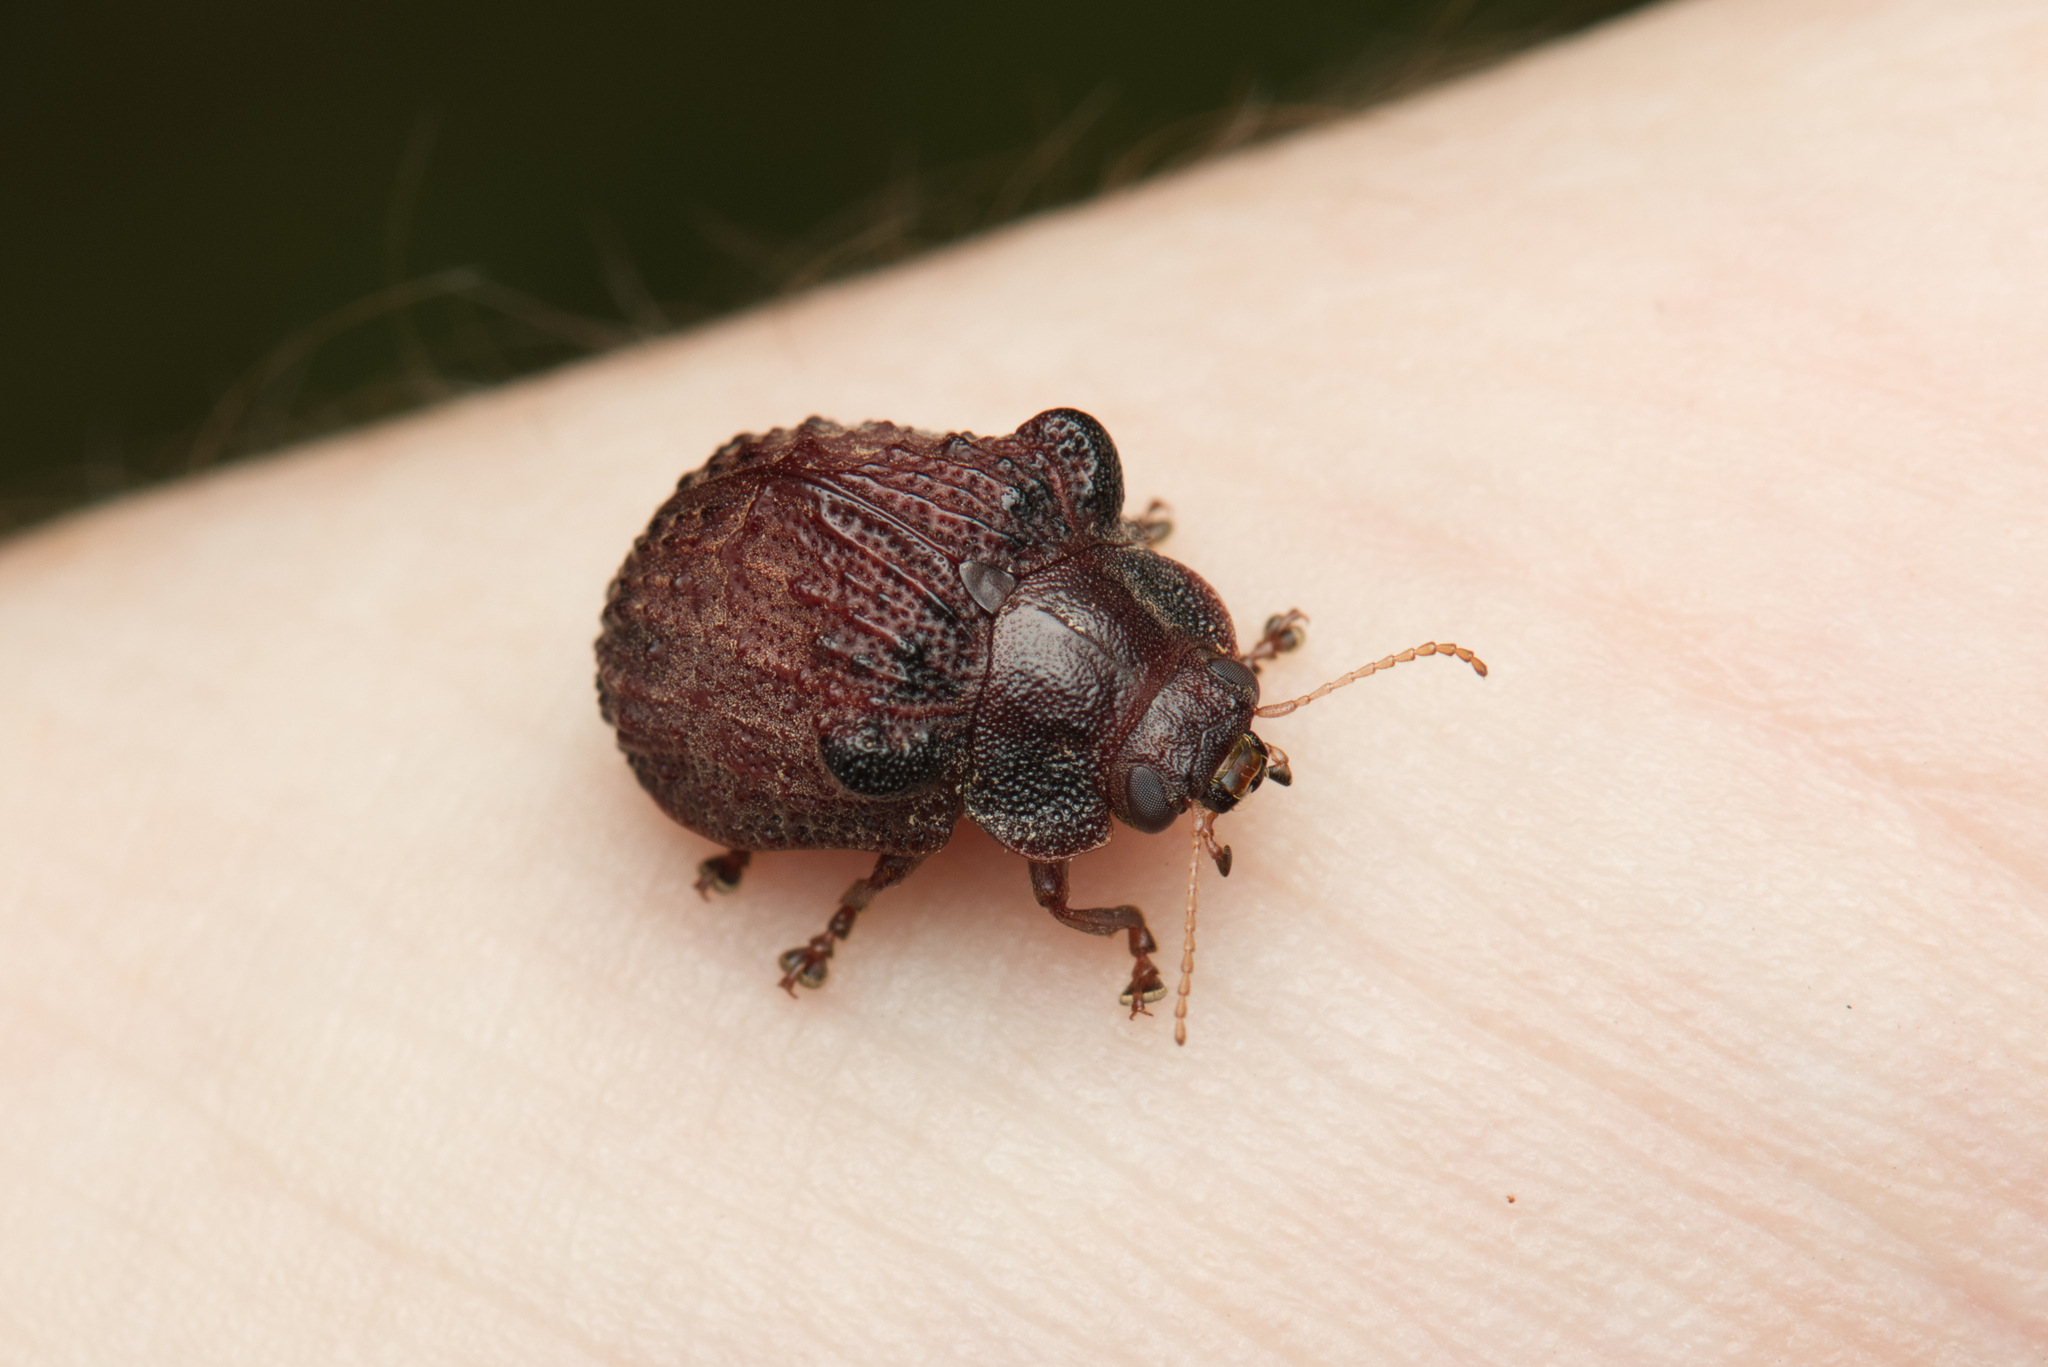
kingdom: Animalia
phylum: Arthropoda
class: Insecta
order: Coleoptera
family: Chrysomelidae
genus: Trachymela
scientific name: Trachymela
